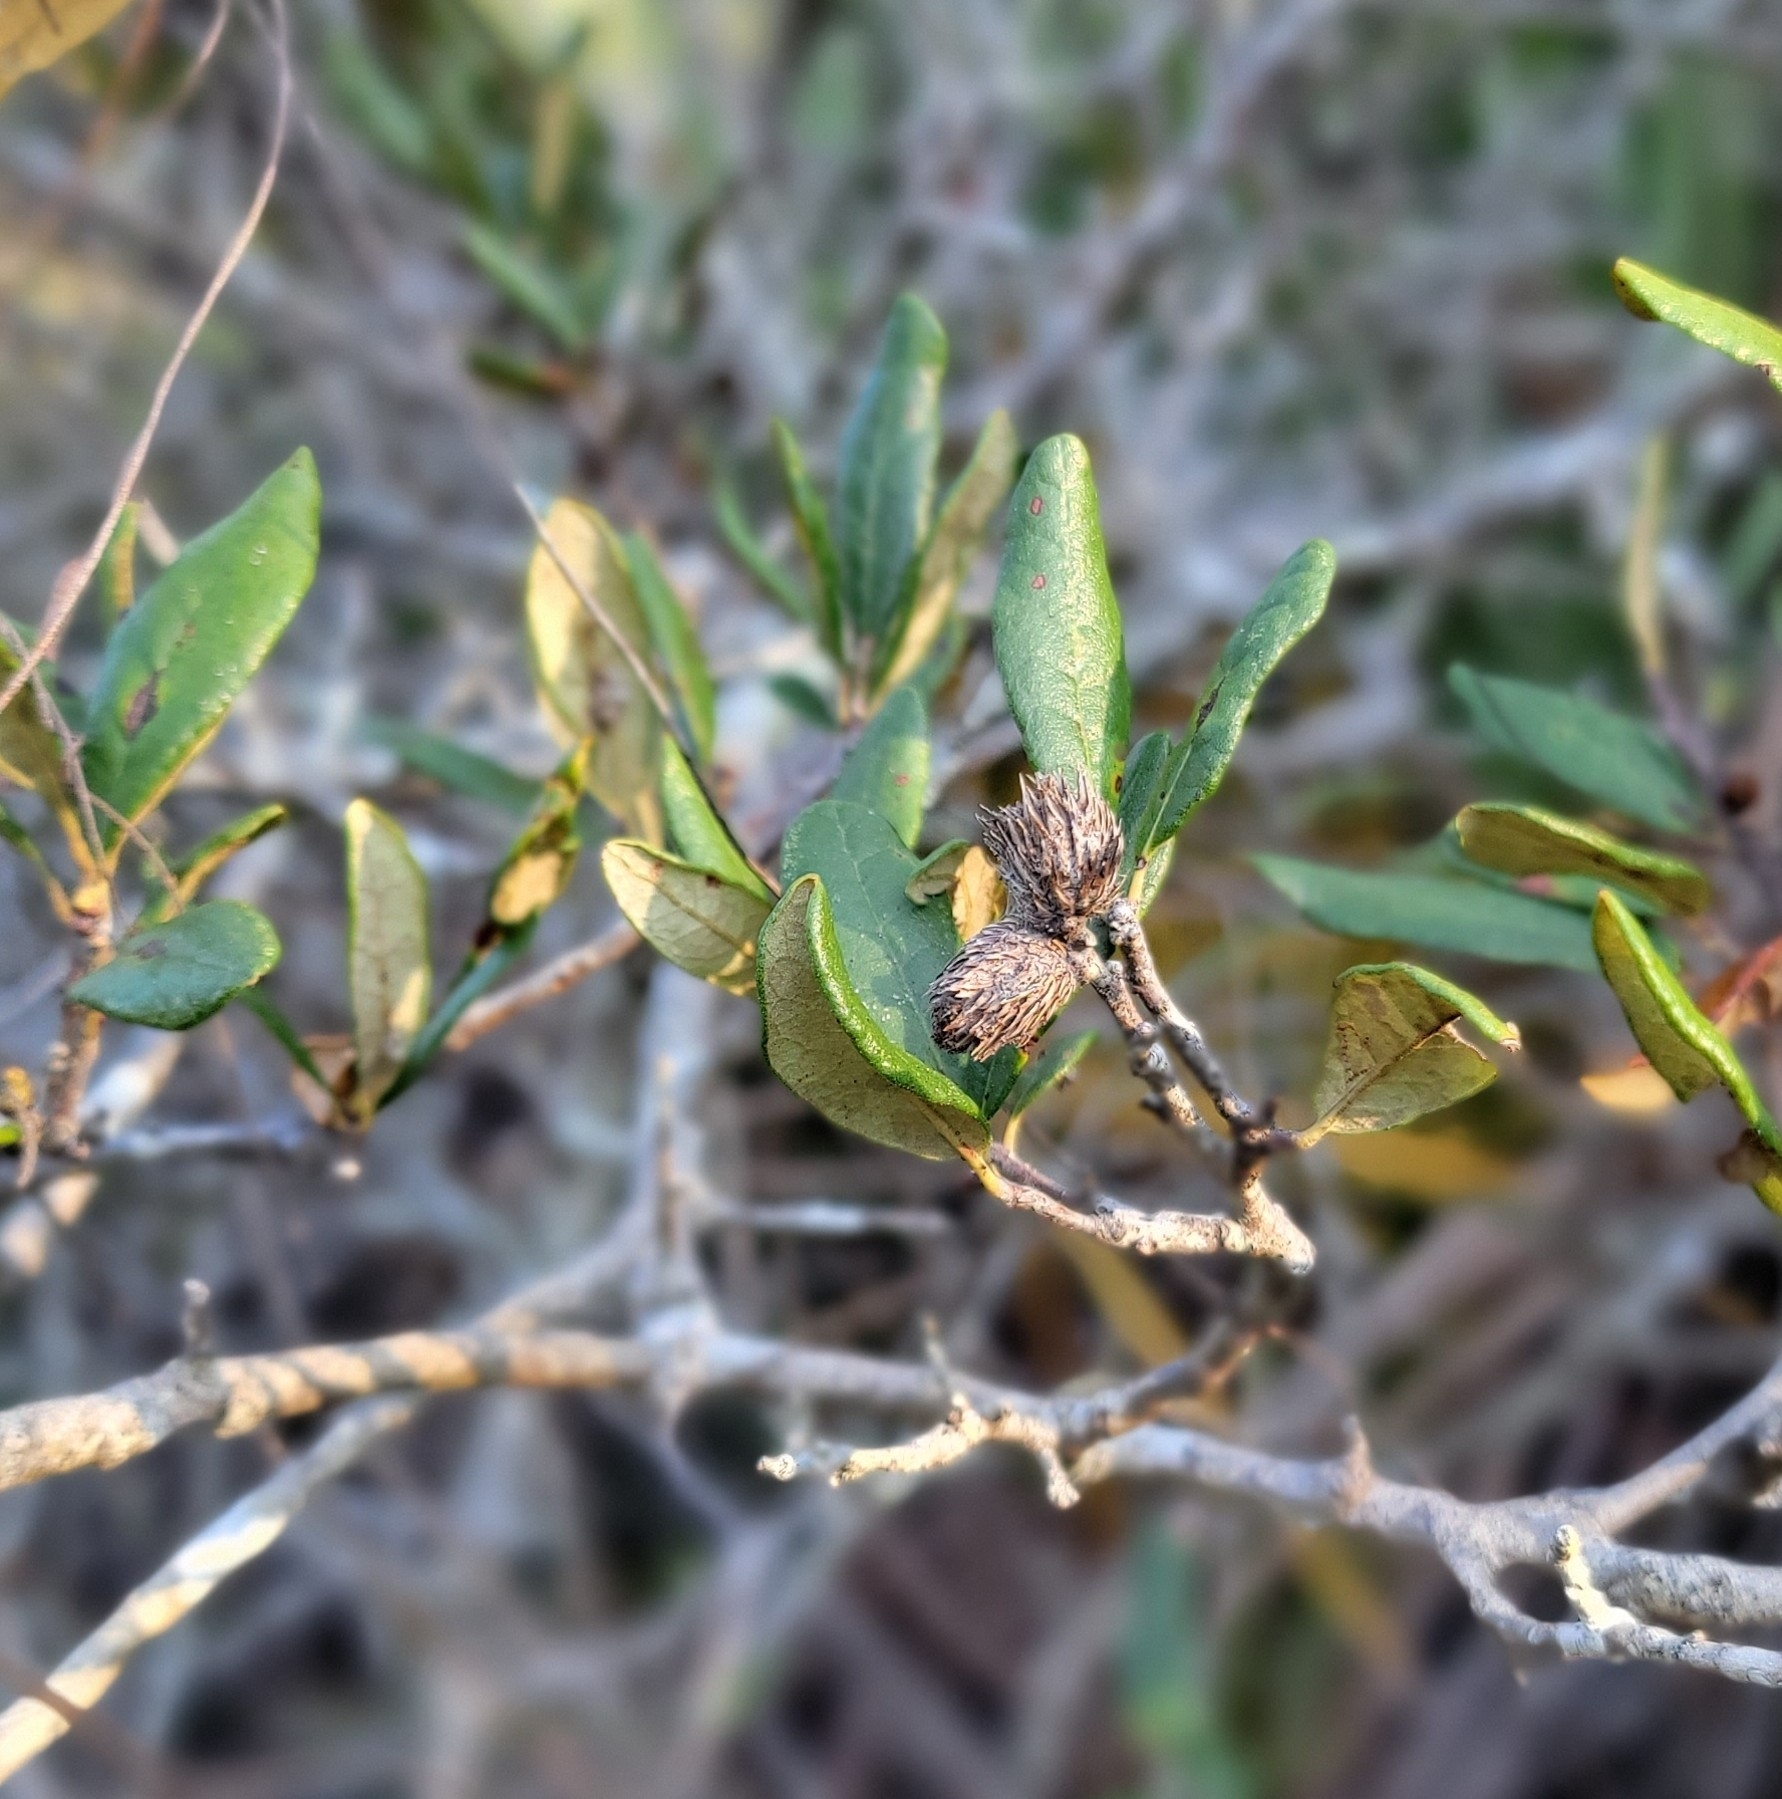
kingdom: Animalia
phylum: Arthropoda
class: Insecta
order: Hymenoptera
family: Cynipidae
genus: Andricus
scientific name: Andricus quercusfoliatus
